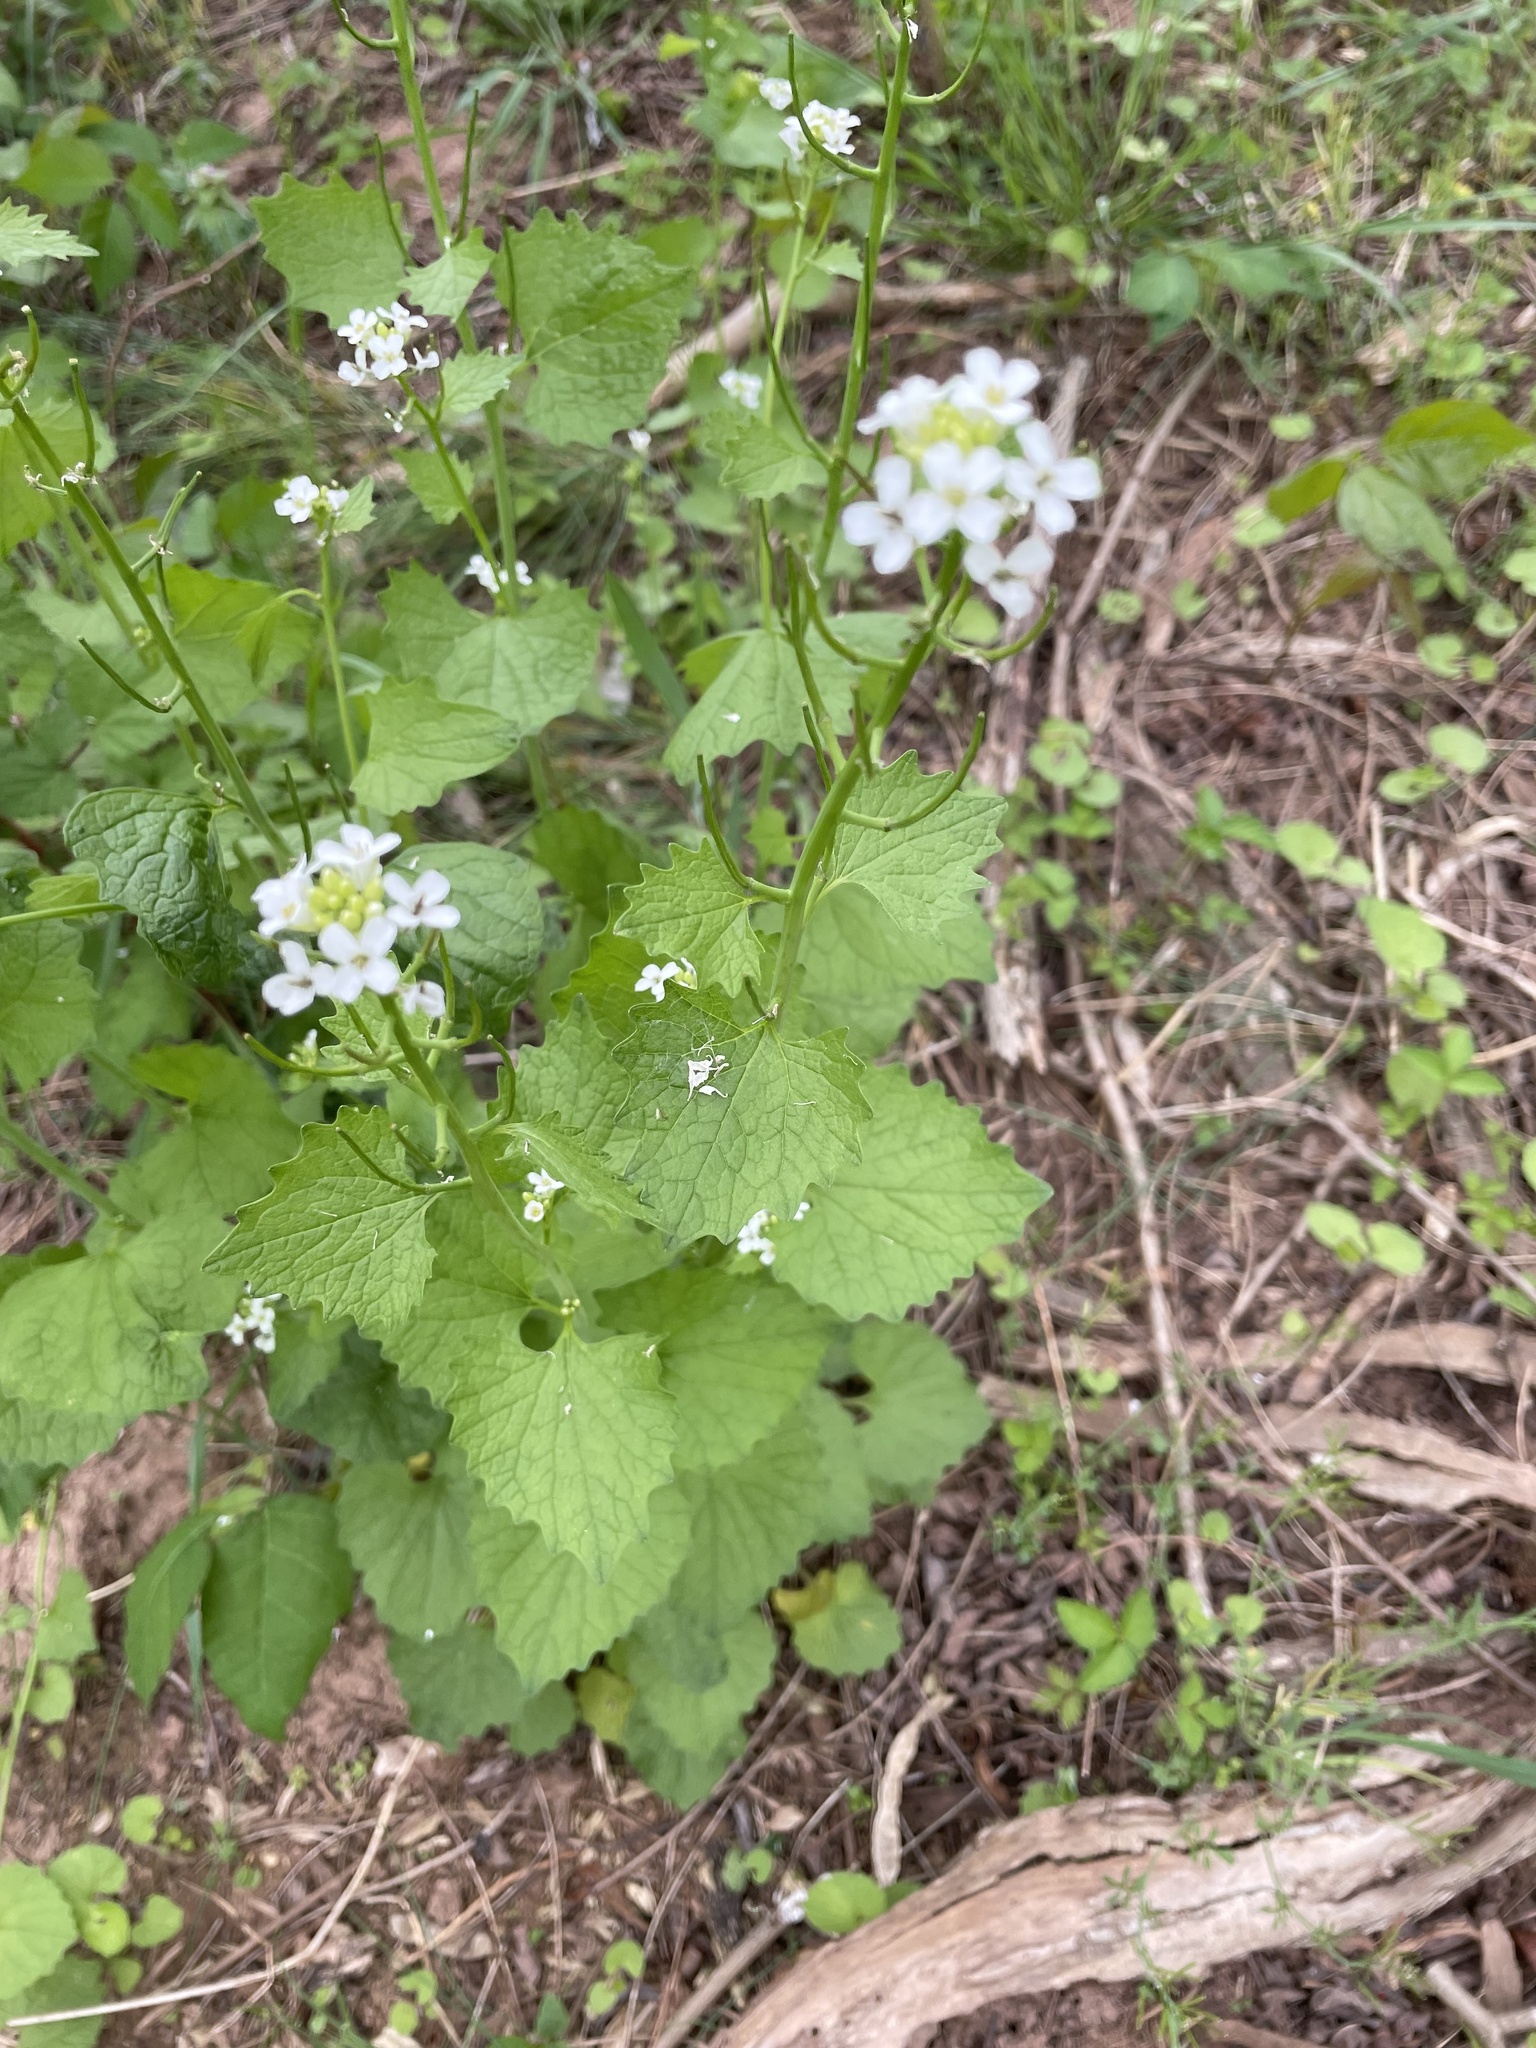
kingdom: Plantae
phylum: Tracheophyta
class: Magnoliopsida
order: Brassicales
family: Brassicaceae
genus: Alliaria
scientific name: Alliaria petiolata
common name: Garlic mustard
